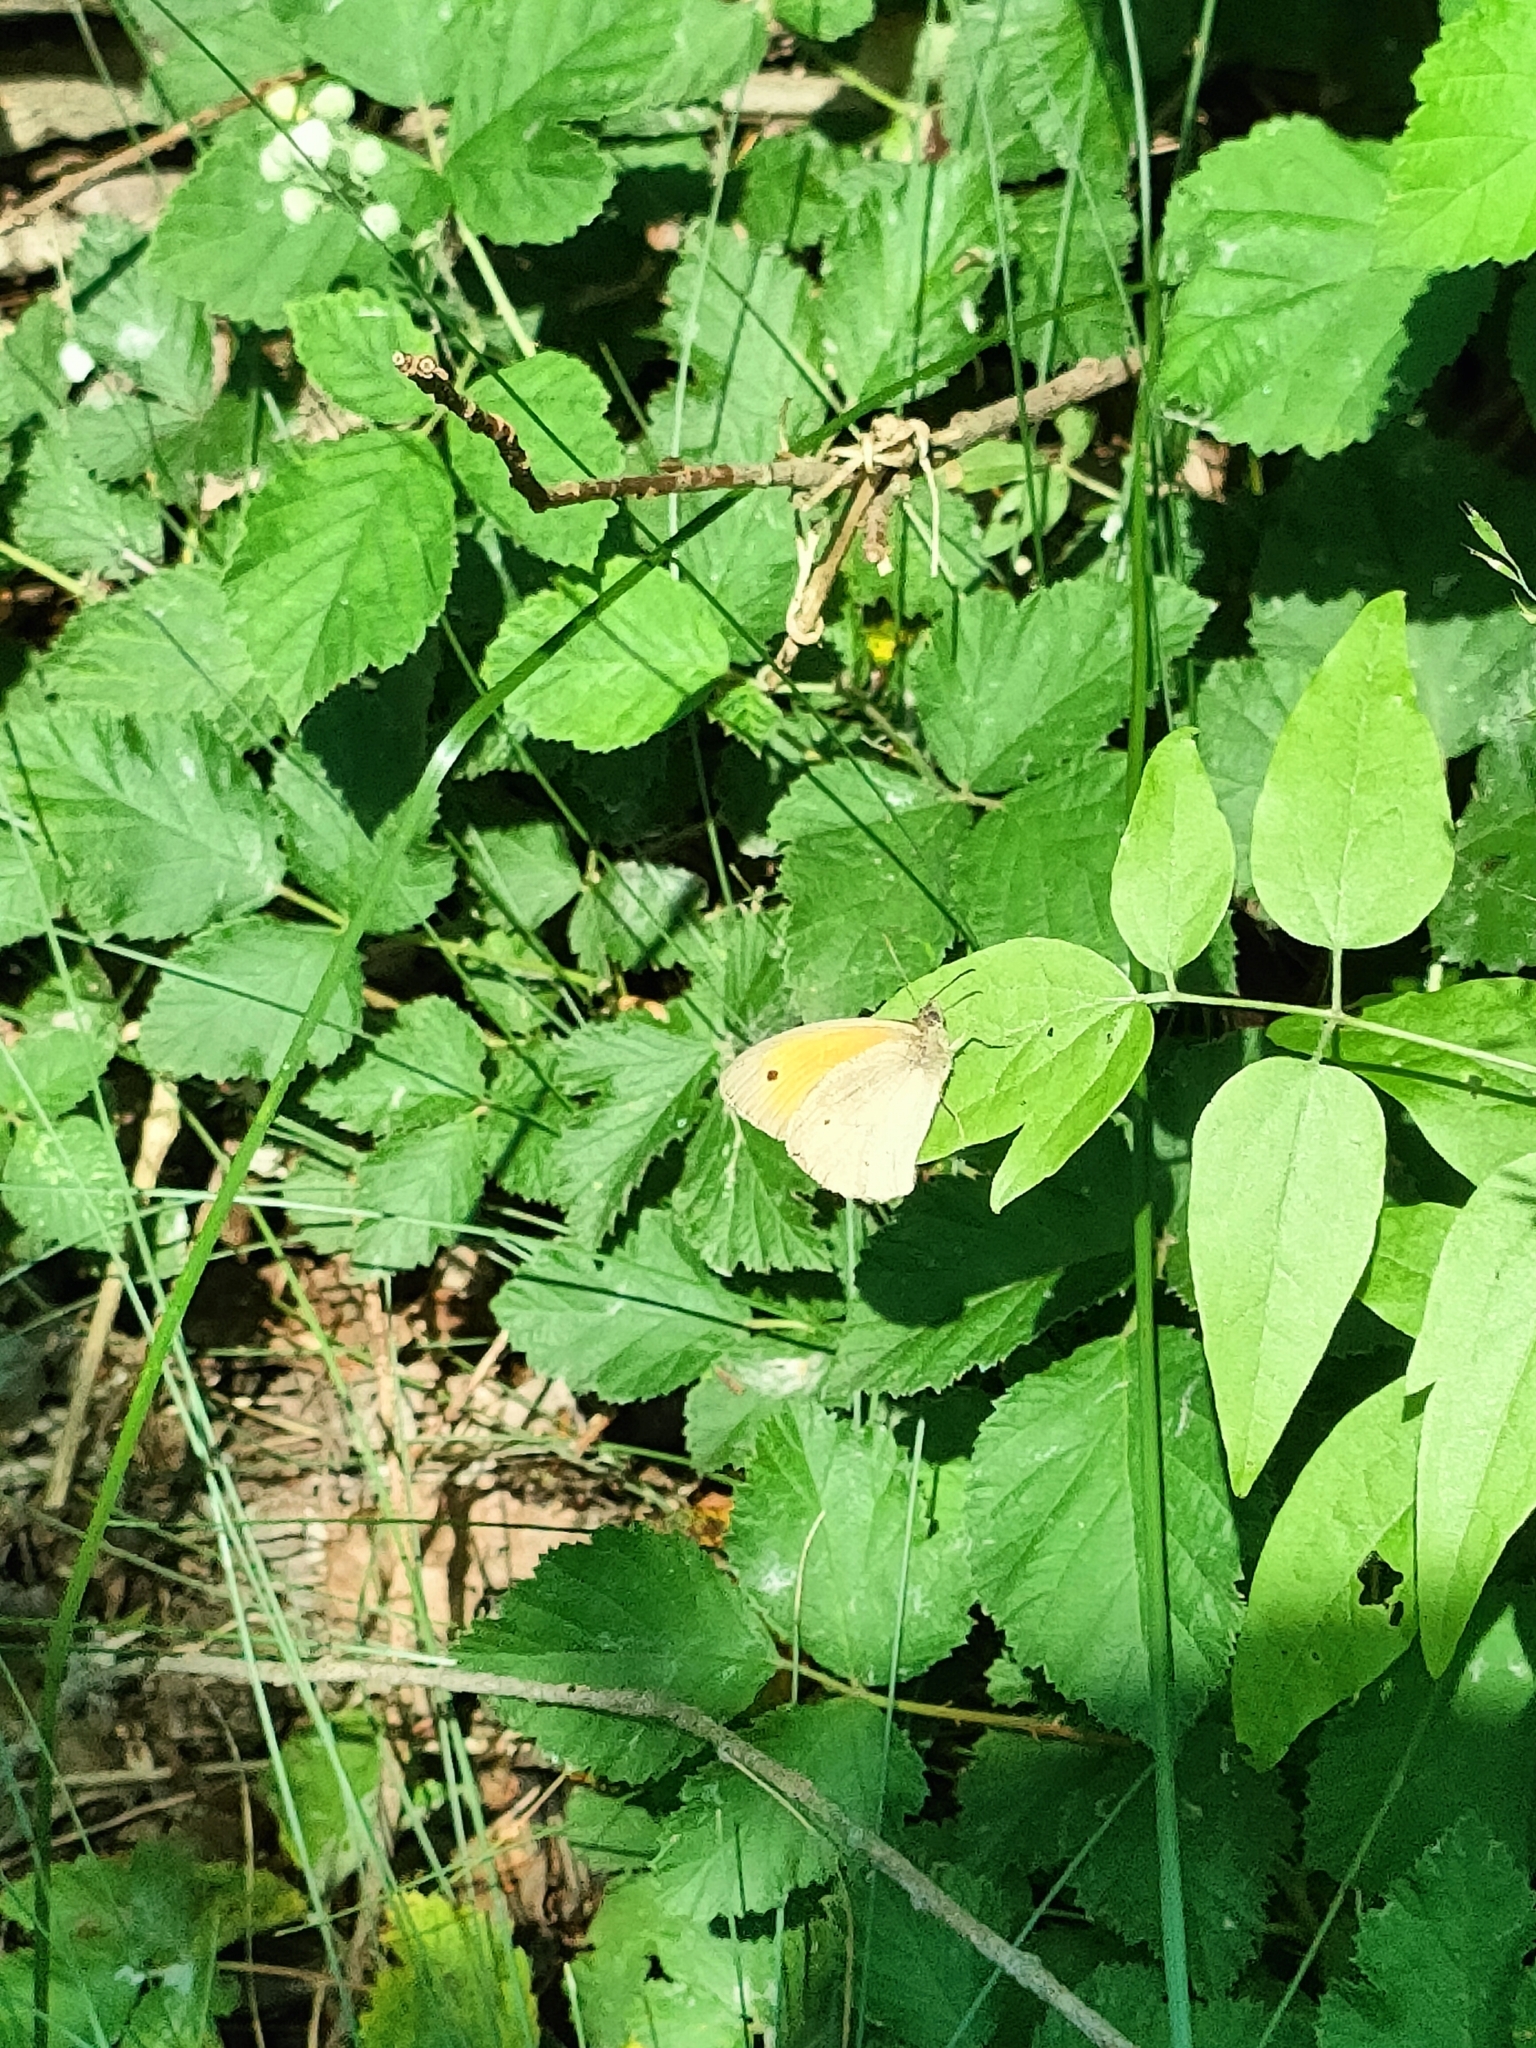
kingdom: Animalia
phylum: Arthropoda
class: Insecta
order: Lepidoptera
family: Nymphalidae
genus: Maniola
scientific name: Maniola jurtina
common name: Meadow brown
